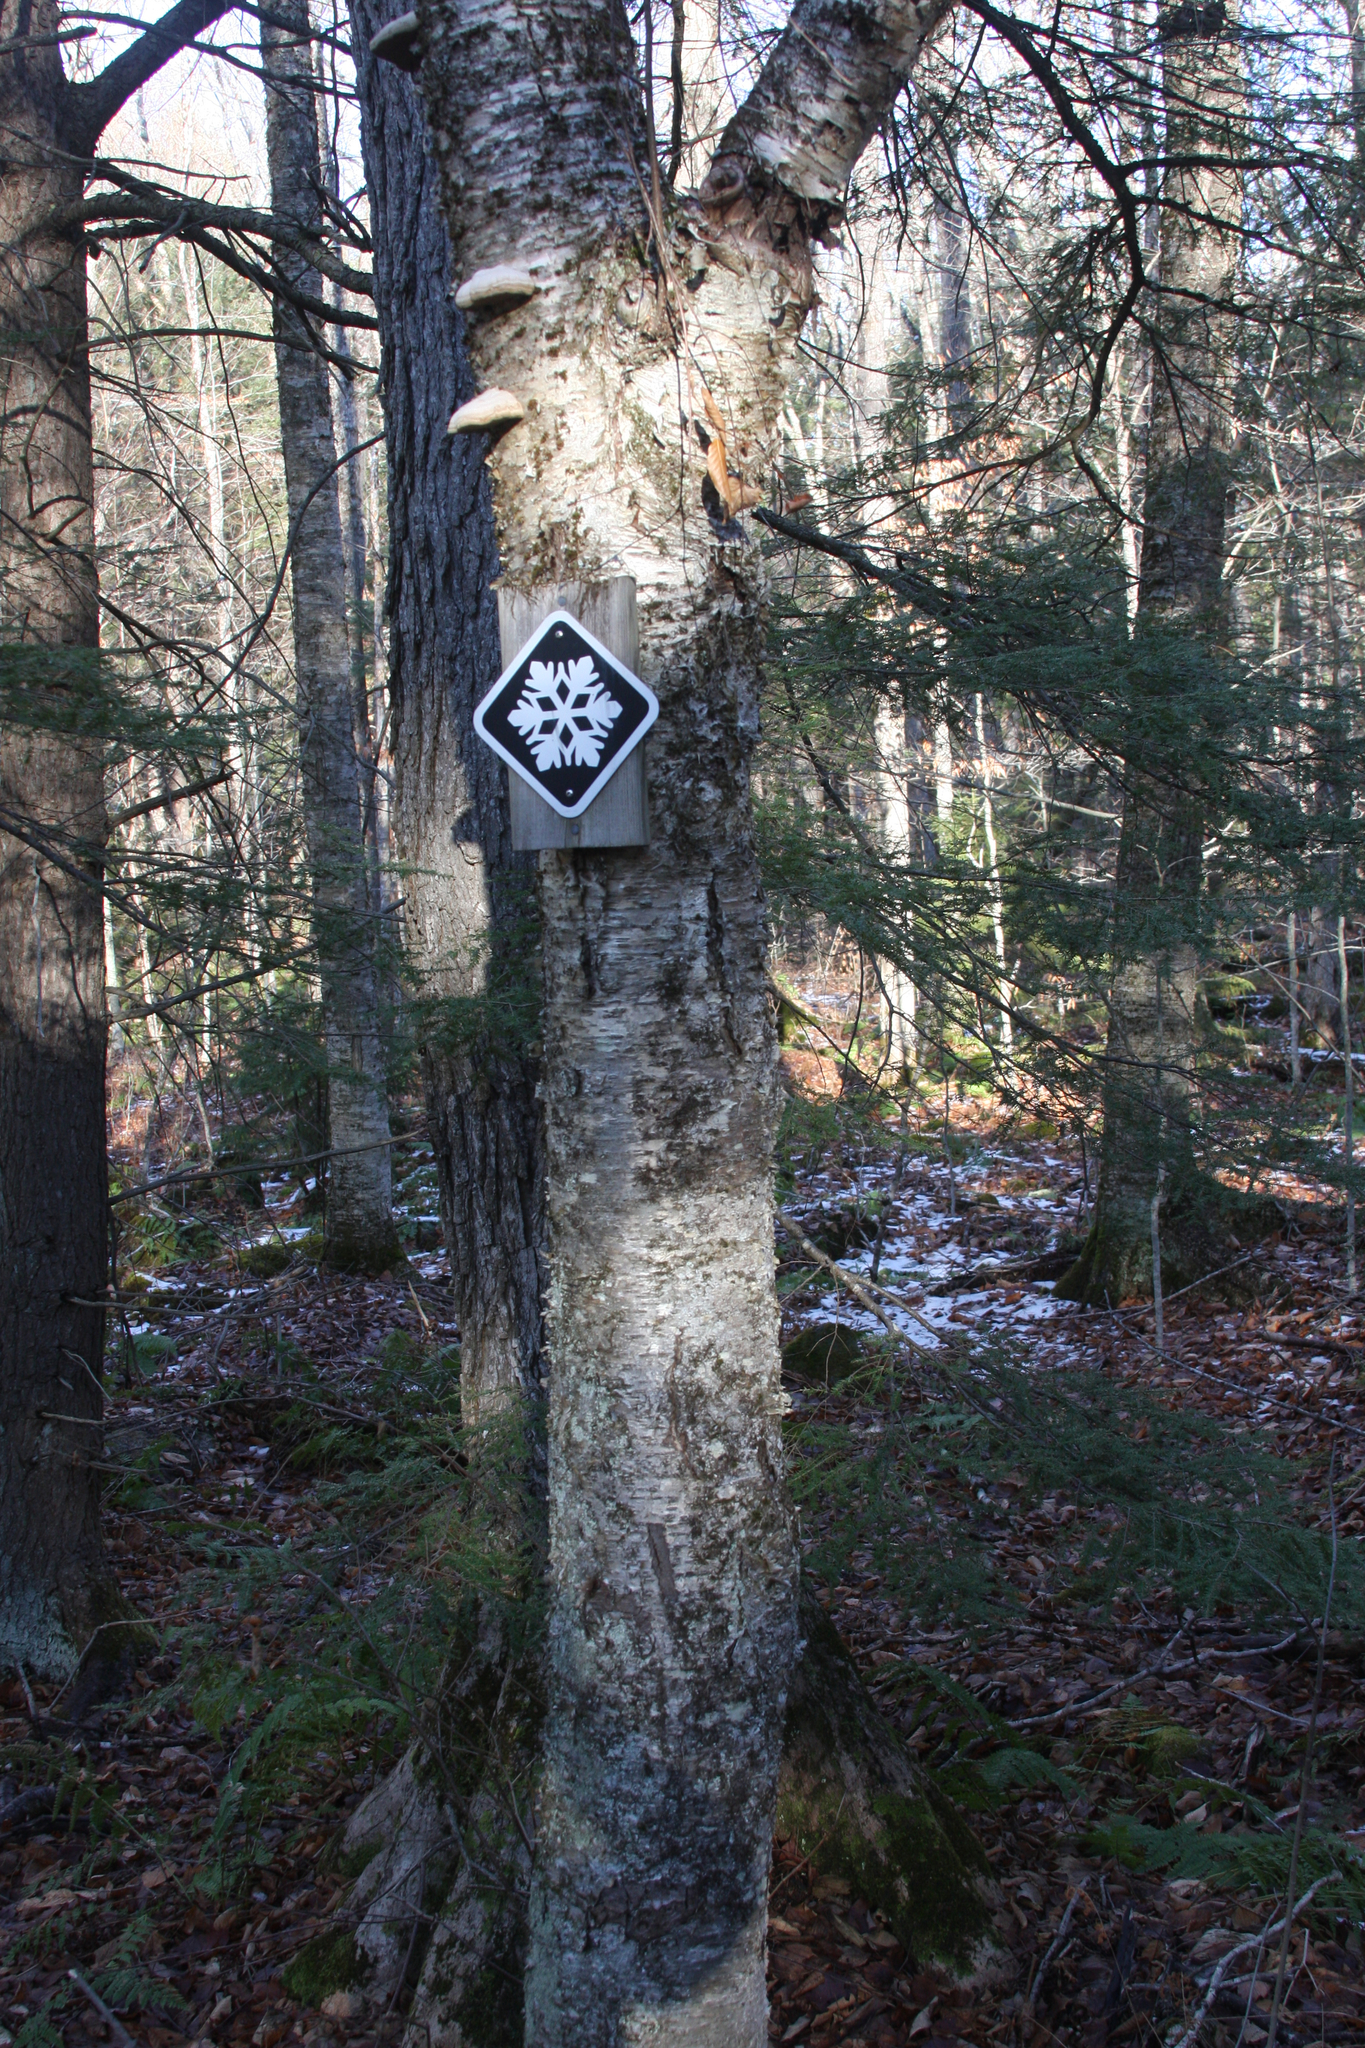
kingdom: Plantae
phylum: Tracheophyta
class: Magnoliopsida
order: Fagales
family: Betulaceae
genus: Betula
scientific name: Betula alleghaniensis
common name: Yellow birch
